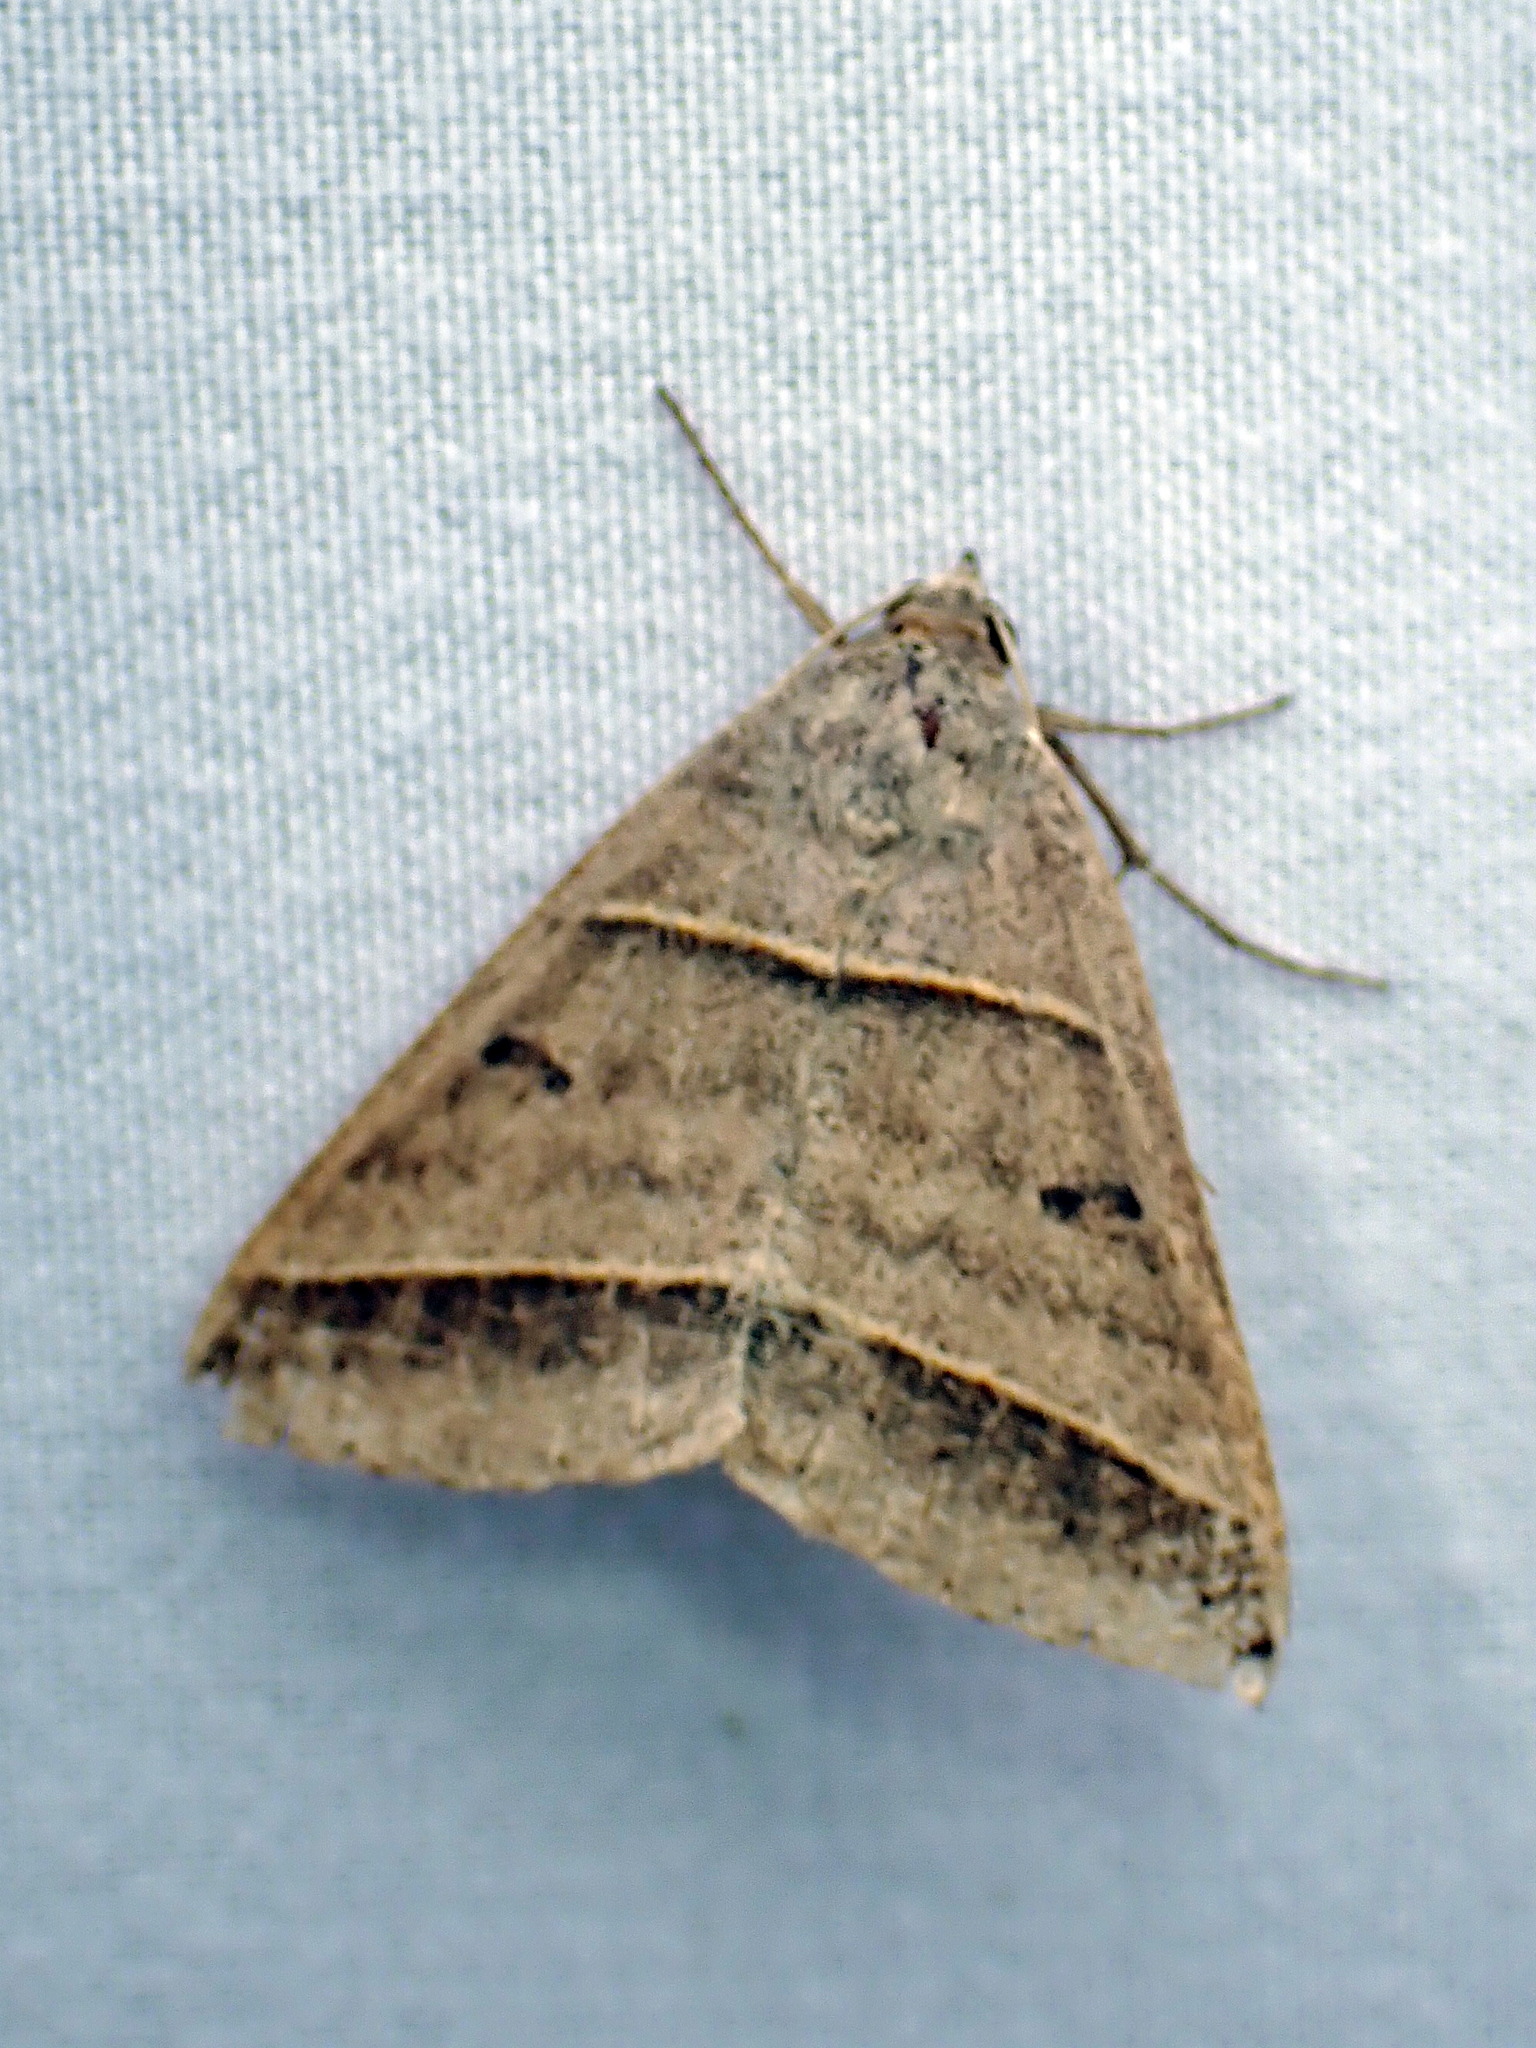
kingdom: Animalia
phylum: Arthropoda
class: Insecta
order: Lepidoptera
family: Erebidae
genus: Ptichodis
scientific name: Ptichodis vinculum
